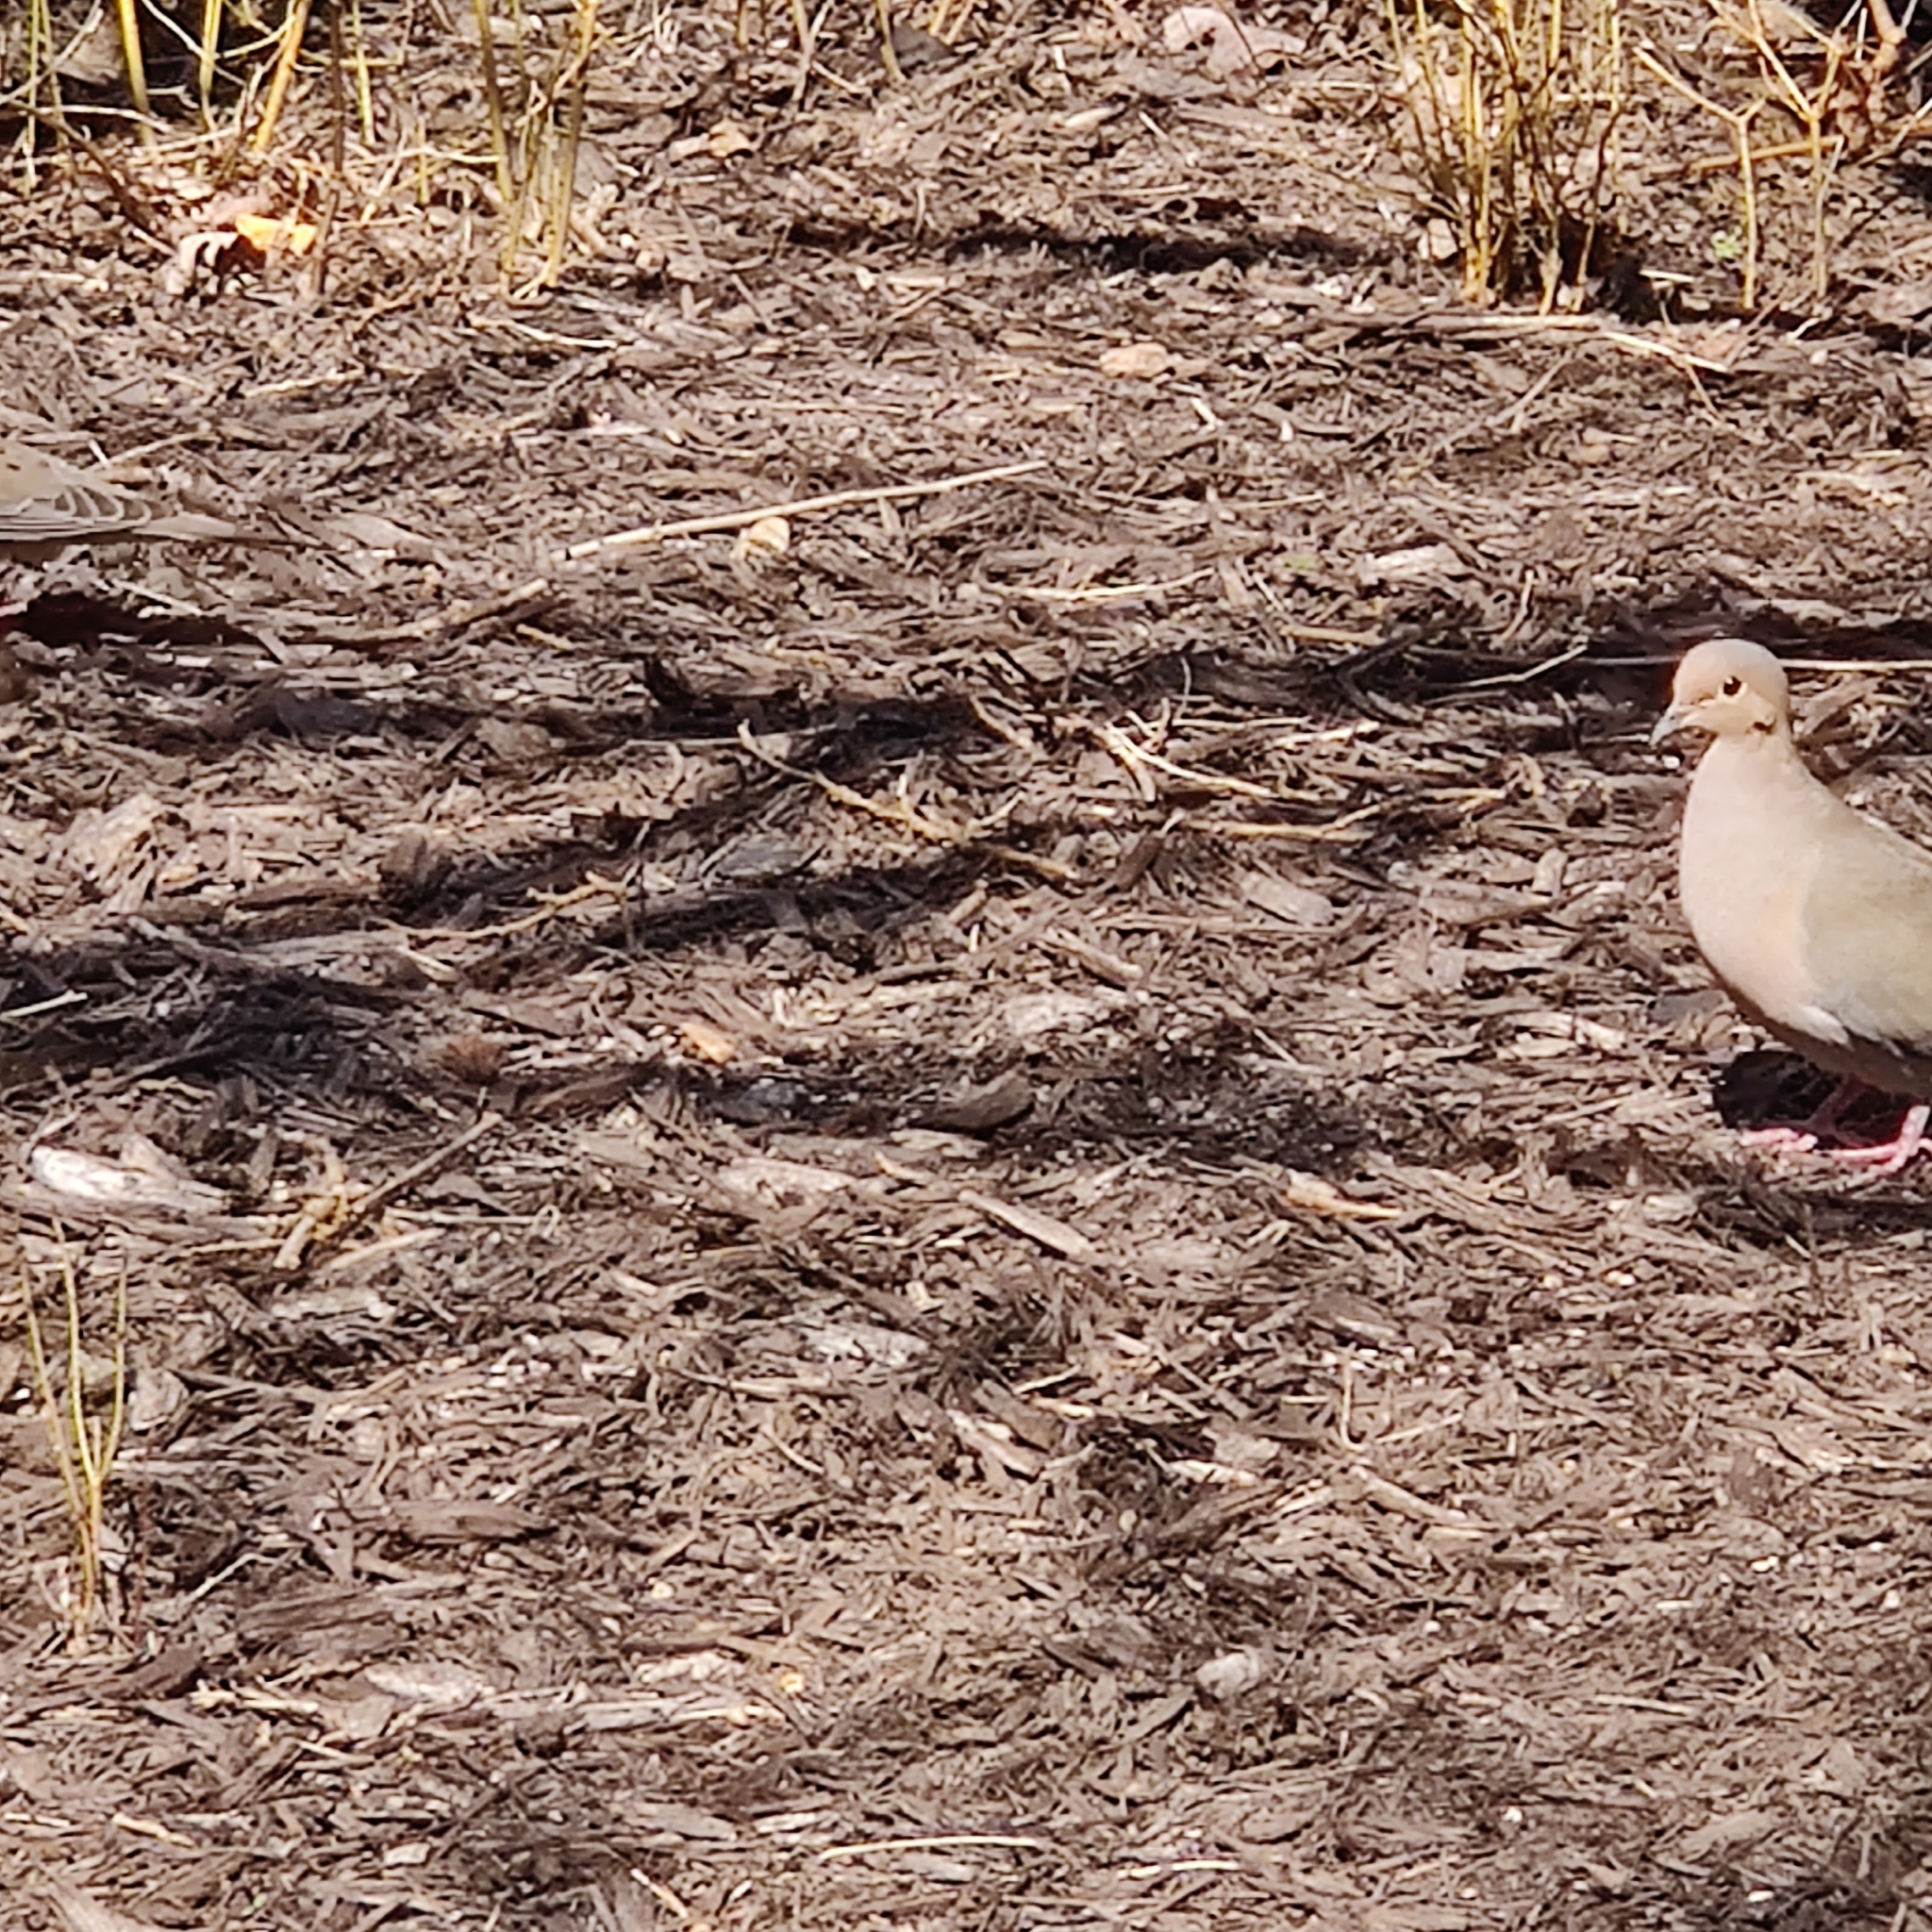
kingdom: Animalia
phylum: Chordata
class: Aves
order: Columbiformes
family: Columbidae
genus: Zenaida
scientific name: Zenaida macroura
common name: Mourning dove
